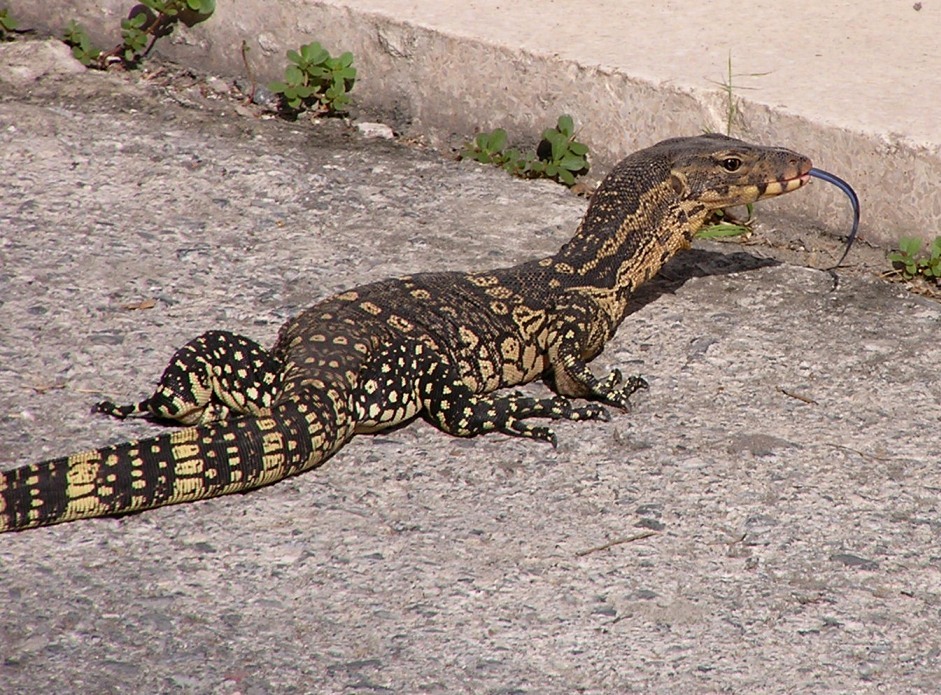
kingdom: Animalia
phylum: Chordata
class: Squamata
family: Varanidae
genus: Varanus
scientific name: Varanus salvator
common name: Common water monitor
